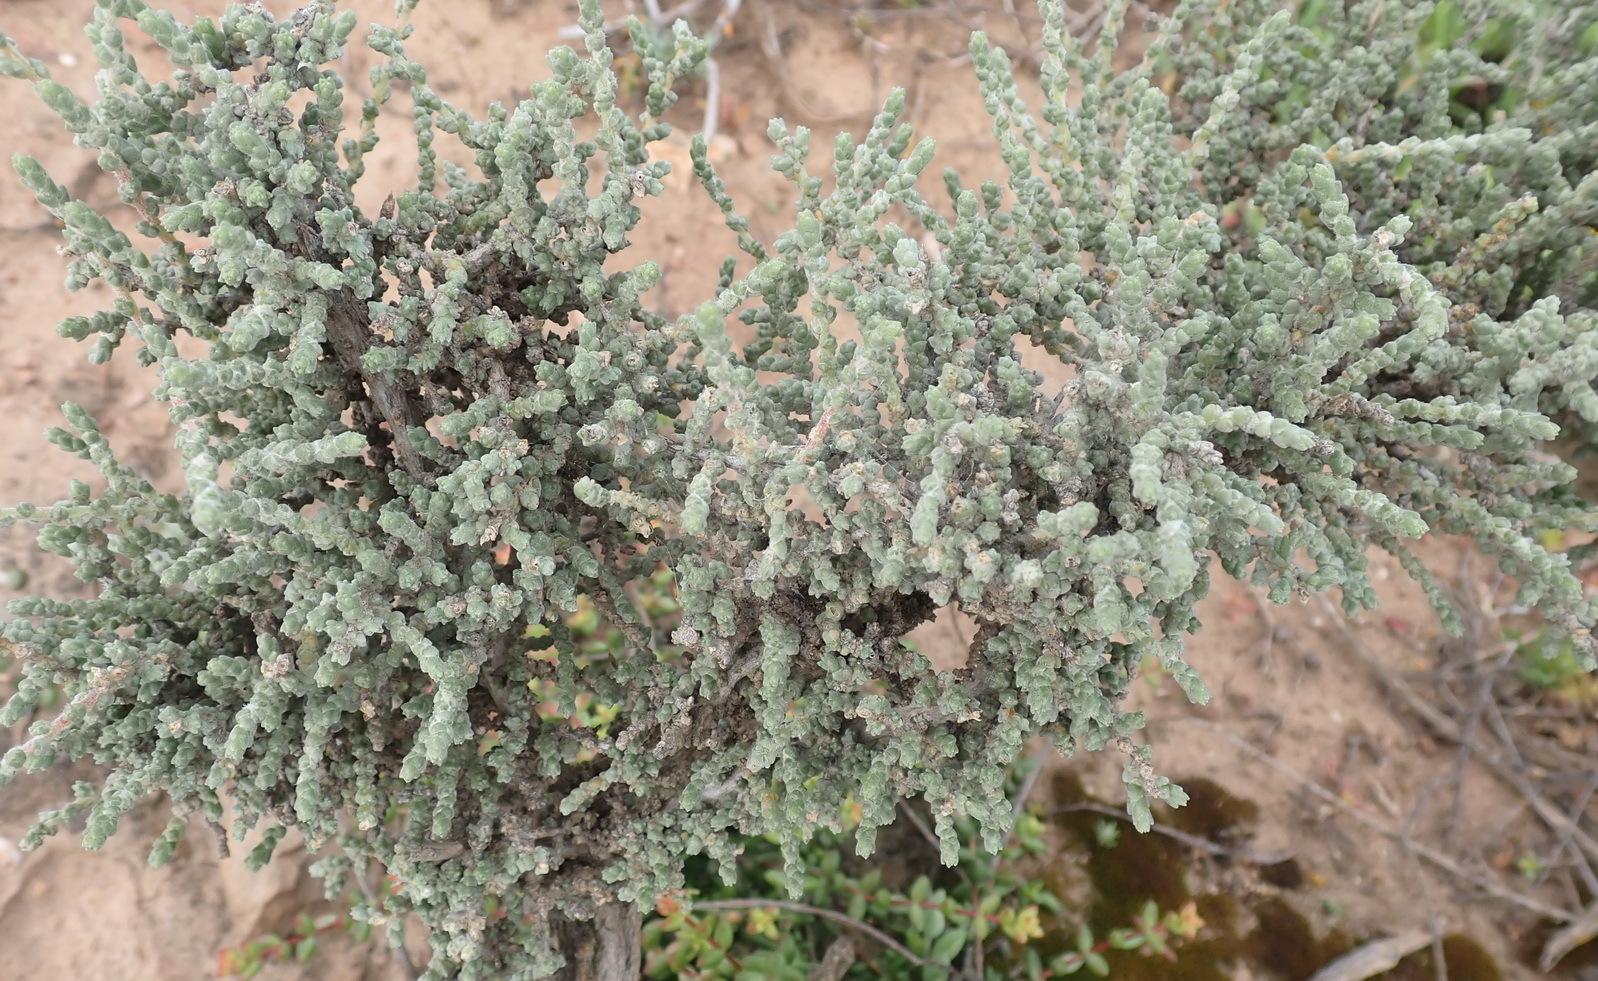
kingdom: Plantae
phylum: Tracheophyta
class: Magnoliopsida
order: Caryophyllales
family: Amaranthaceae
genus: Caroxylon
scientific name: Caroxylon aphyllum
